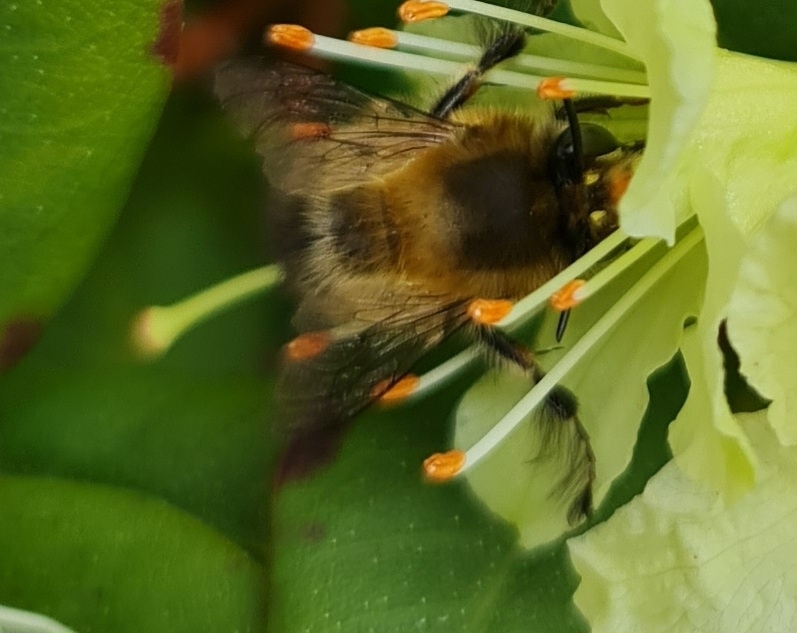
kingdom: Animalia
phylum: Arthropoda
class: Insecta
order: Hymenoptera
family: Apidae
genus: Anthophora
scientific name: Anthophora plumipes
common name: Hairy-footed flower bee
